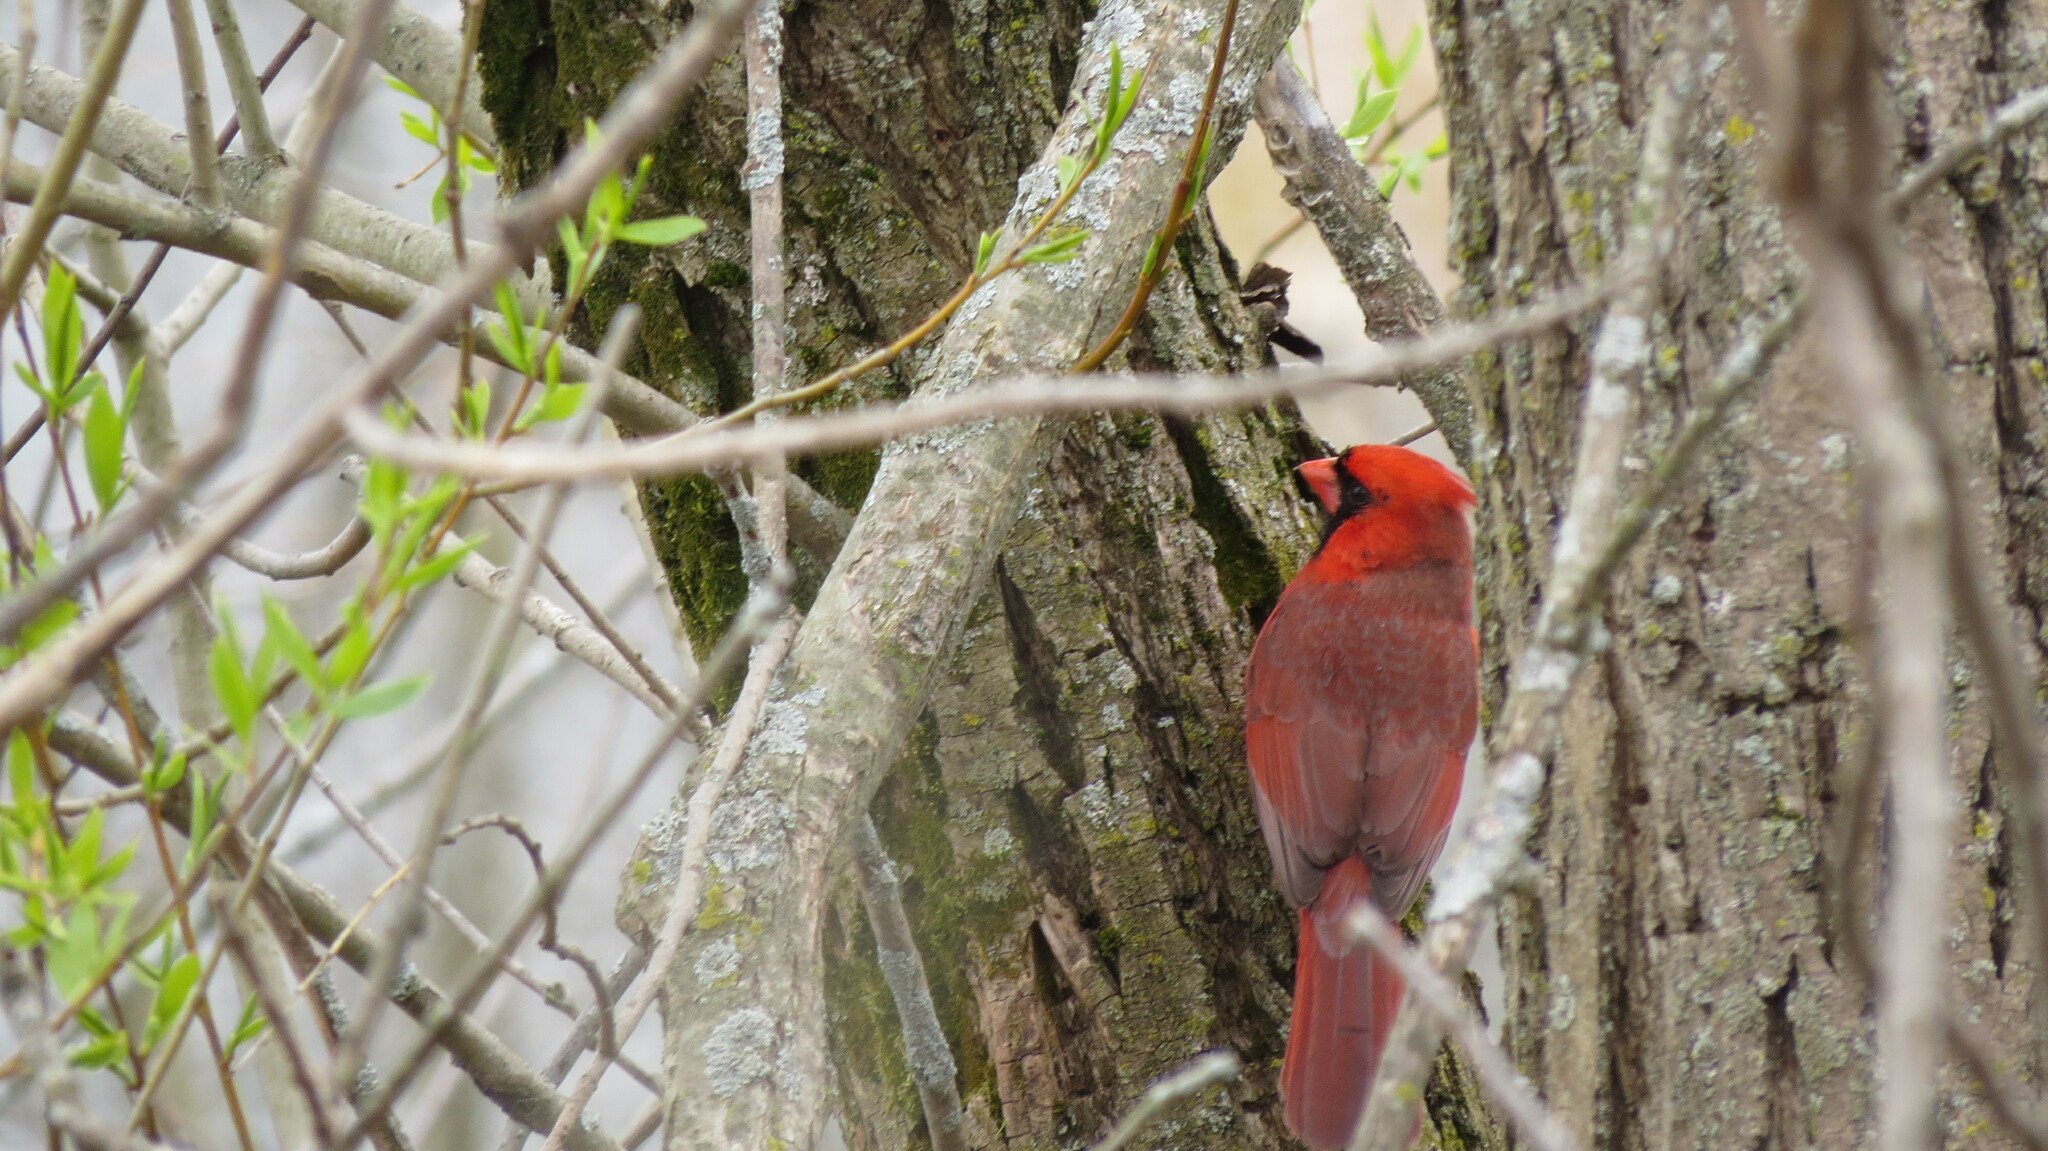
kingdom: Animalia
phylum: Chordata
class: Aves
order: Passeriformes
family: Cardinalidae
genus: Cardinalis
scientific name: Cardinalis cardinalis
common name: Northern cardinal
